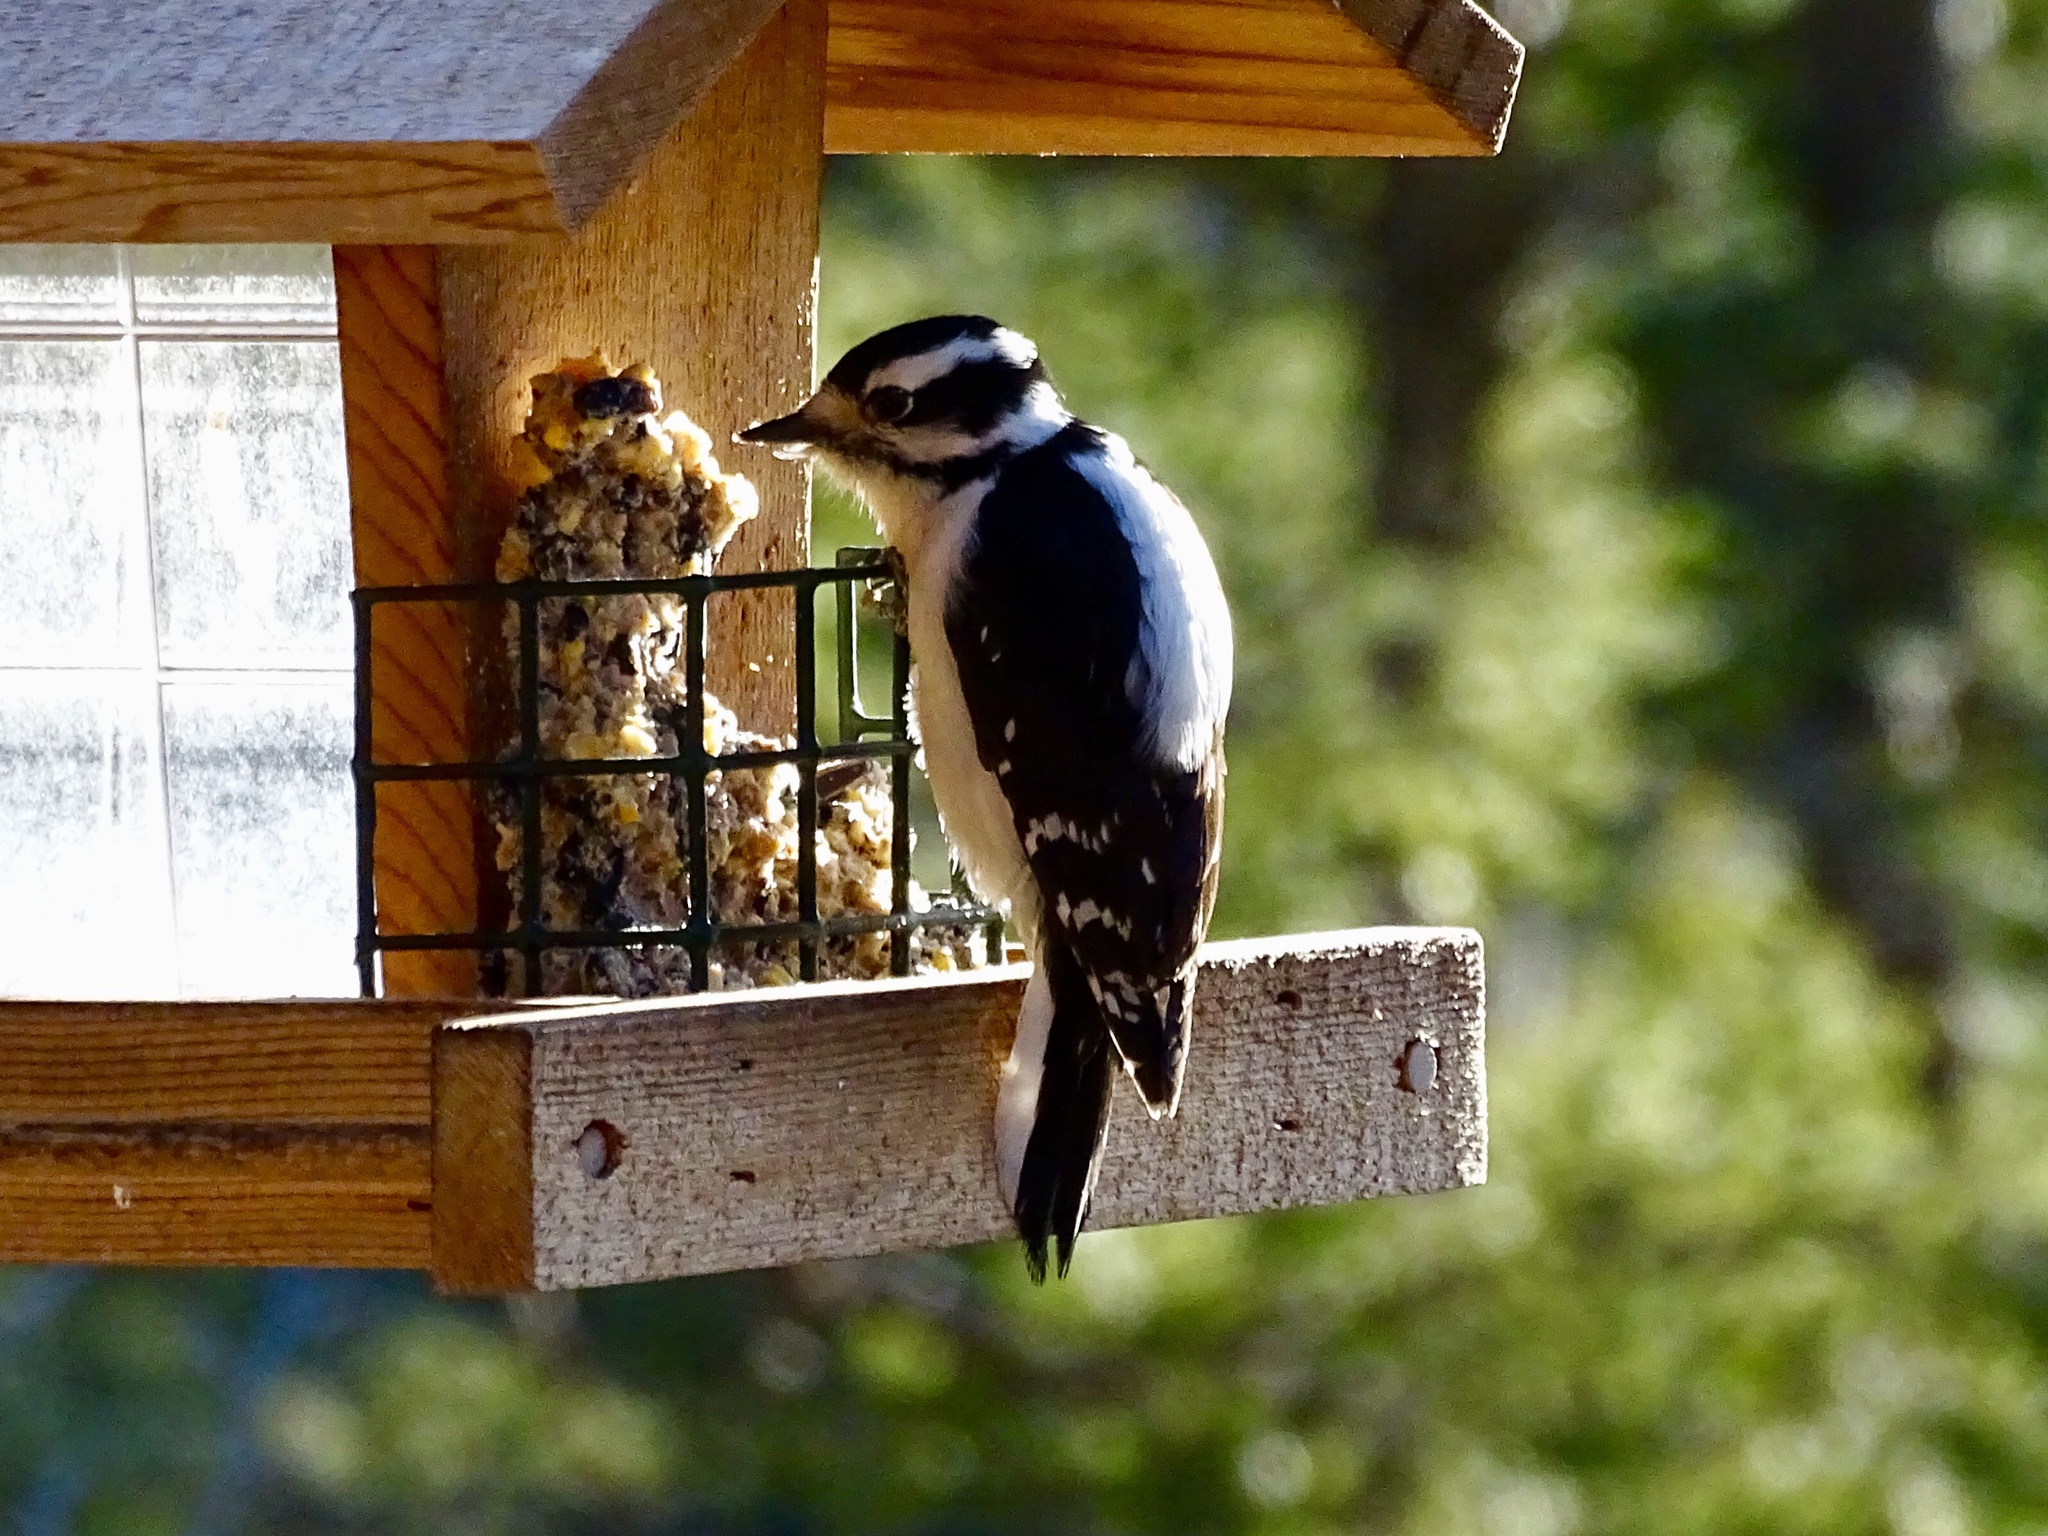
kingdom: Animalia
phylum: Chordata
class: Aves
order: Piciformes
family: Picidae
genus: Dryobates
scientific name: Dryobates pubescens
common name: Downy woodpecker
